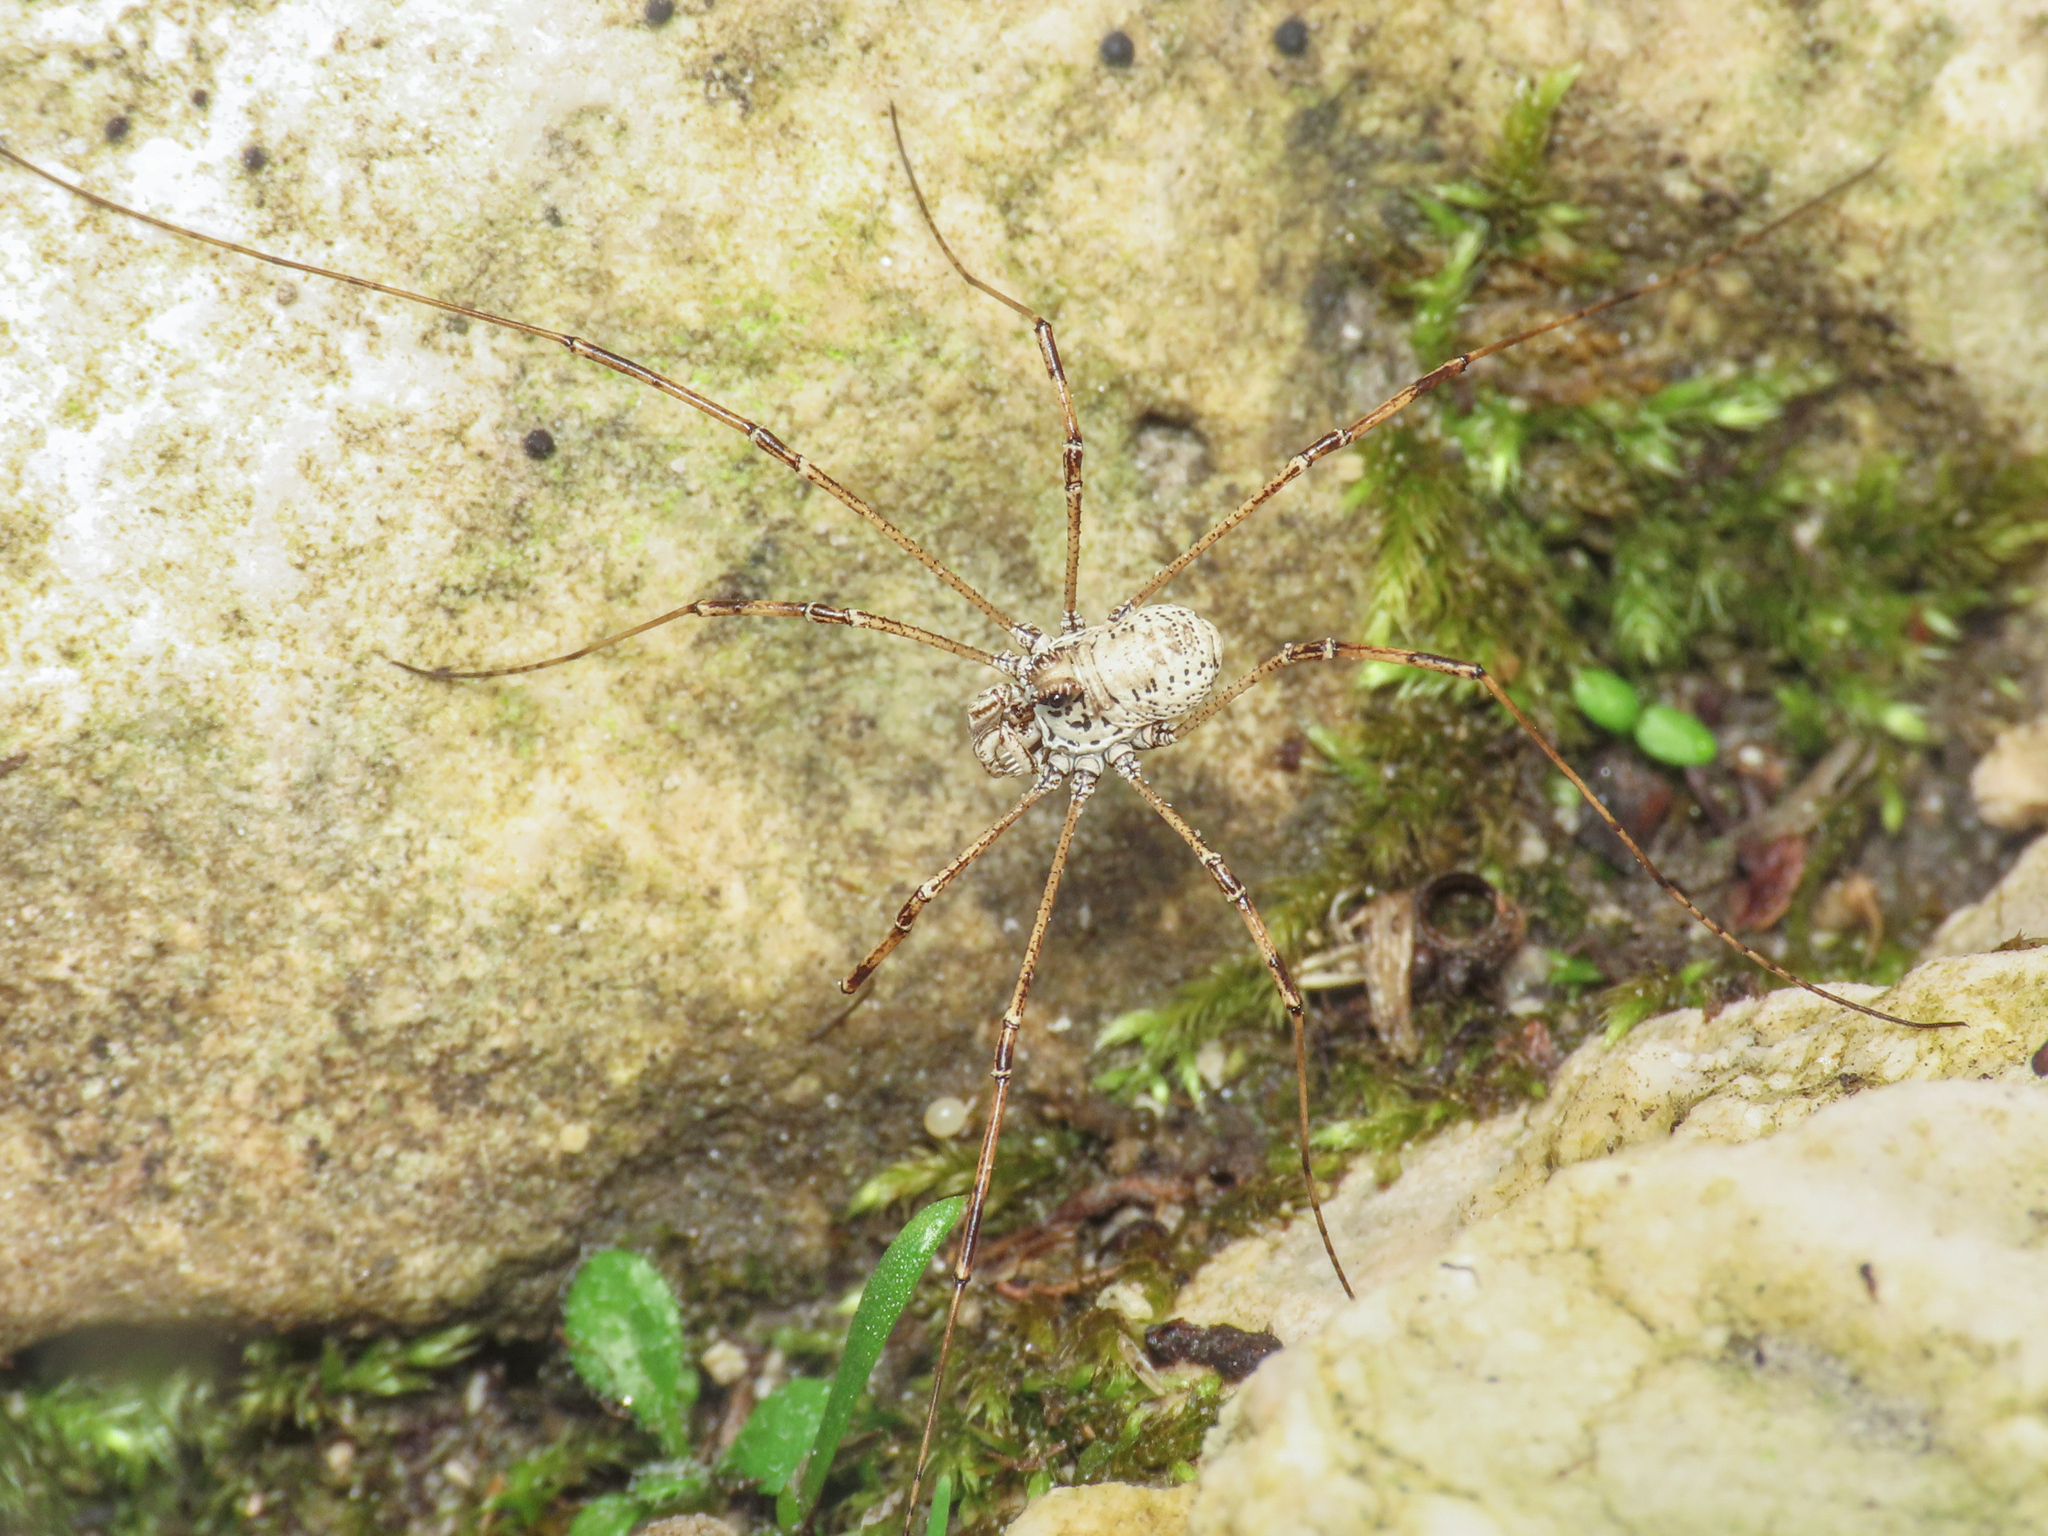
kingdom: Animalia
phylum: Arthropoda
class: Arachnida
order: Opiliones
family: Phalangiidae
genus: Megabunus
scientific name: Megabunus armatus
